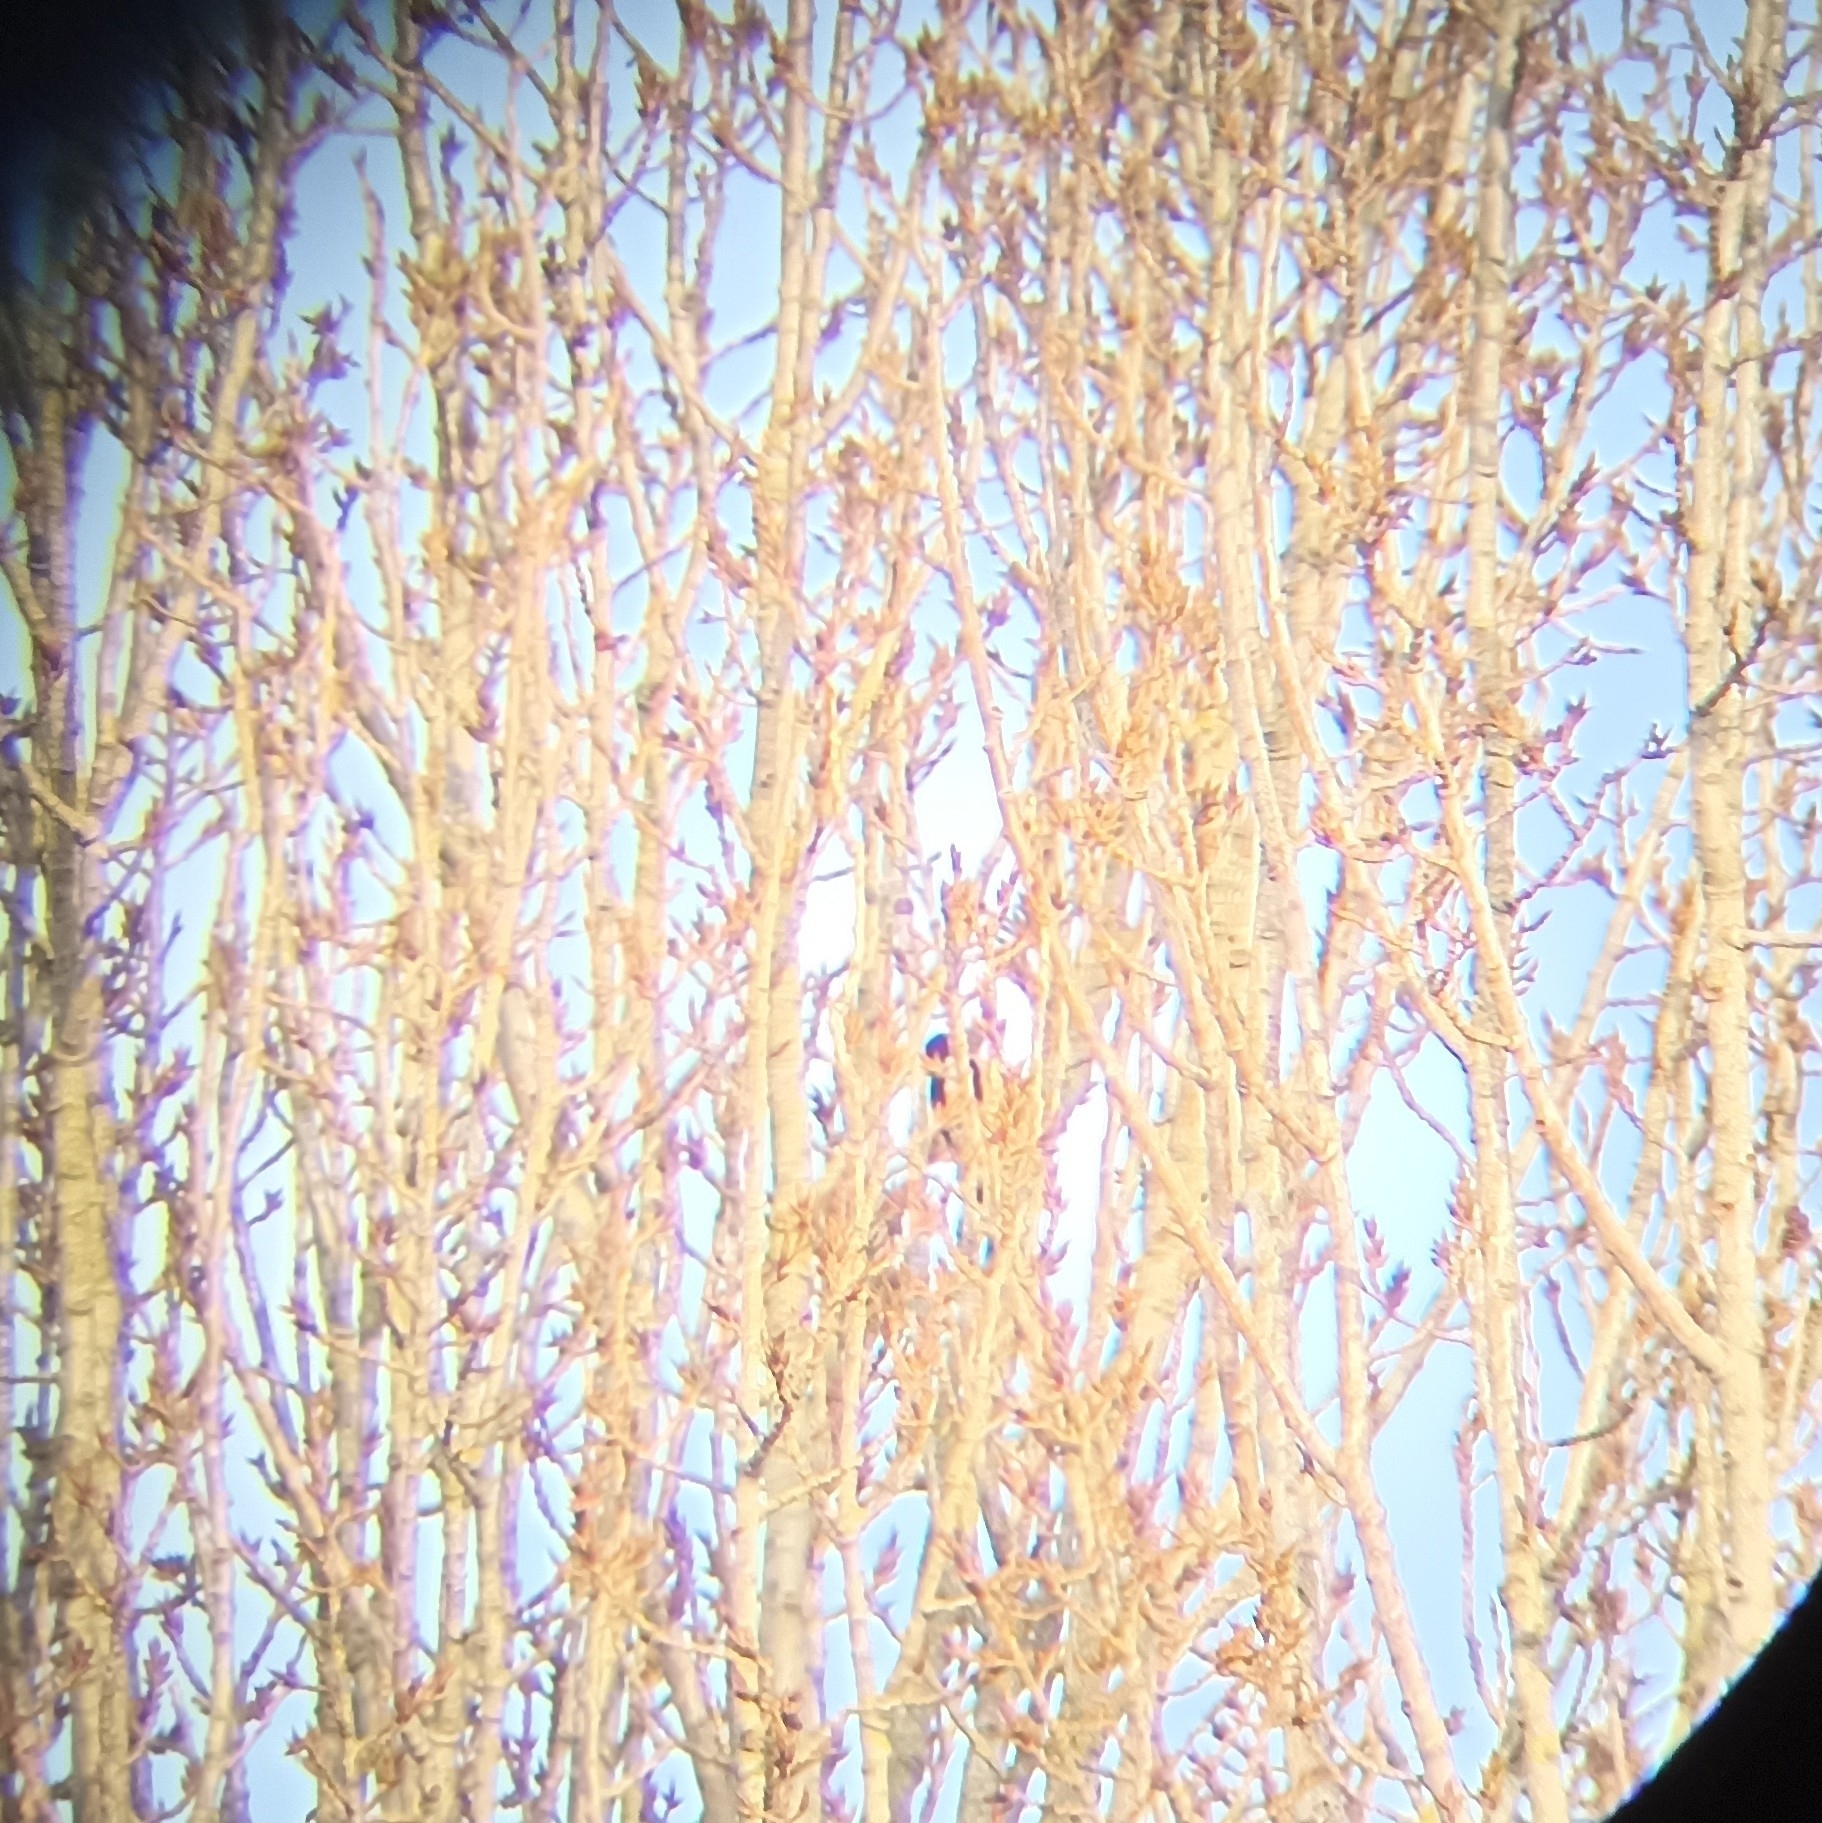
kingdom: Animalia
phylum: Chordata
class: Aves
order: Piciformes
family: Picidae
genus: Dendrocopos
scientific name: Dendrocopos major
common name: Great spotted woodpecker
